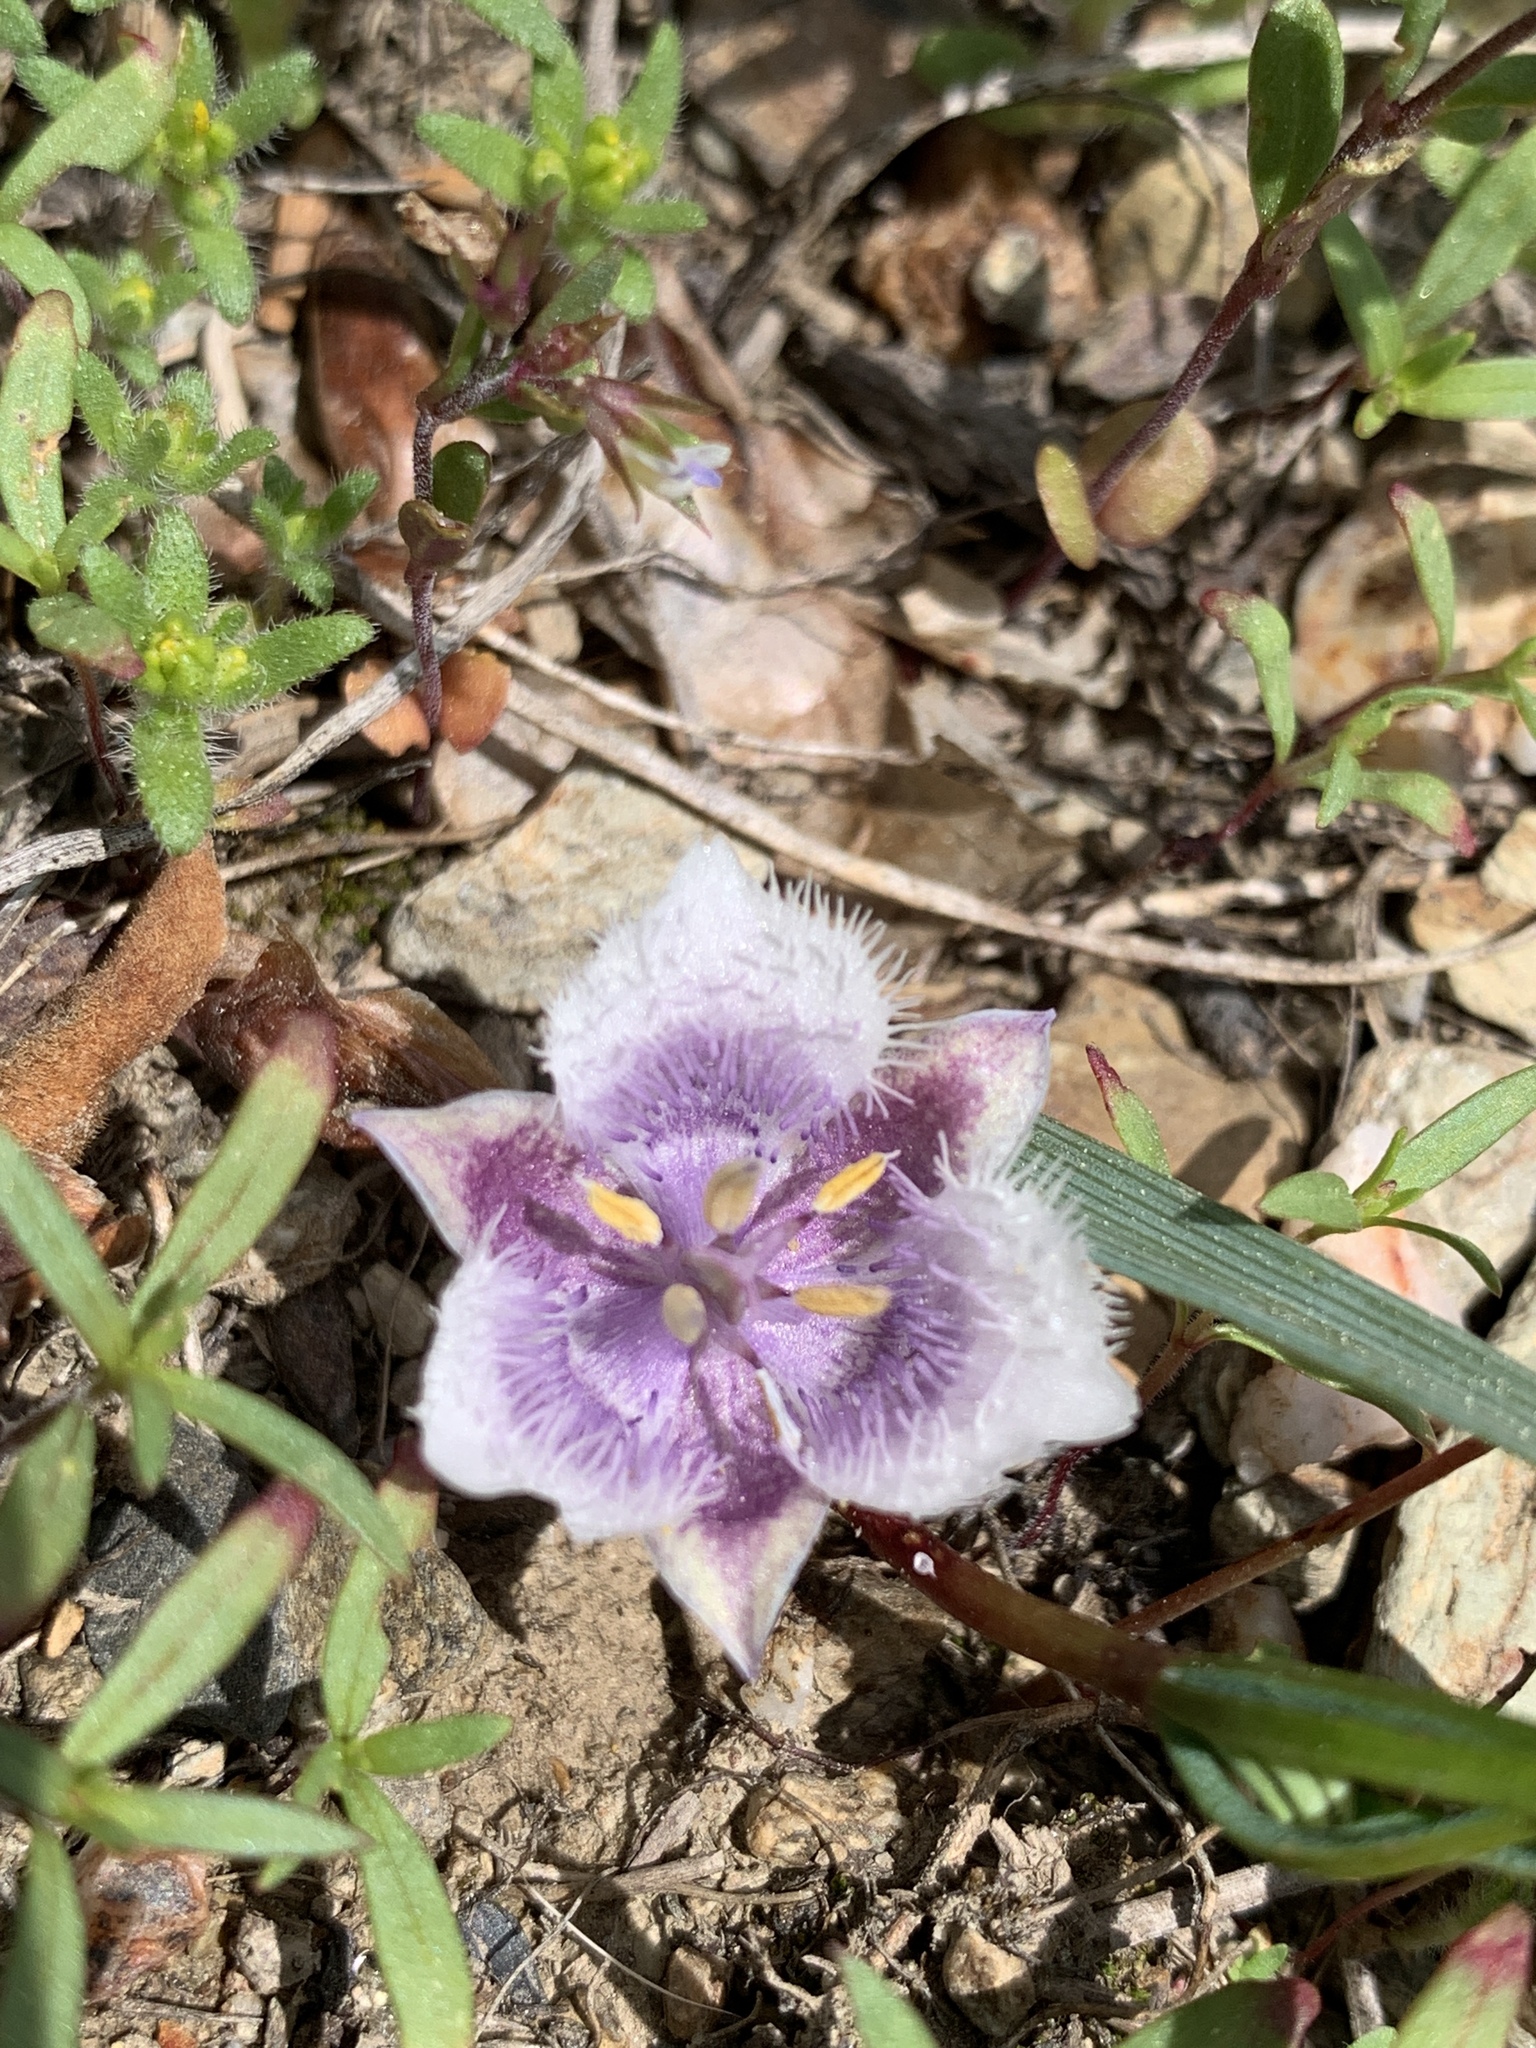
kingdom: Plantae
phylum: Tracheophyta
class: Liliopsida
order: Liliales
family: Liliaceae
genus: Calochortus
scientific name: Calochortus coeruleus
